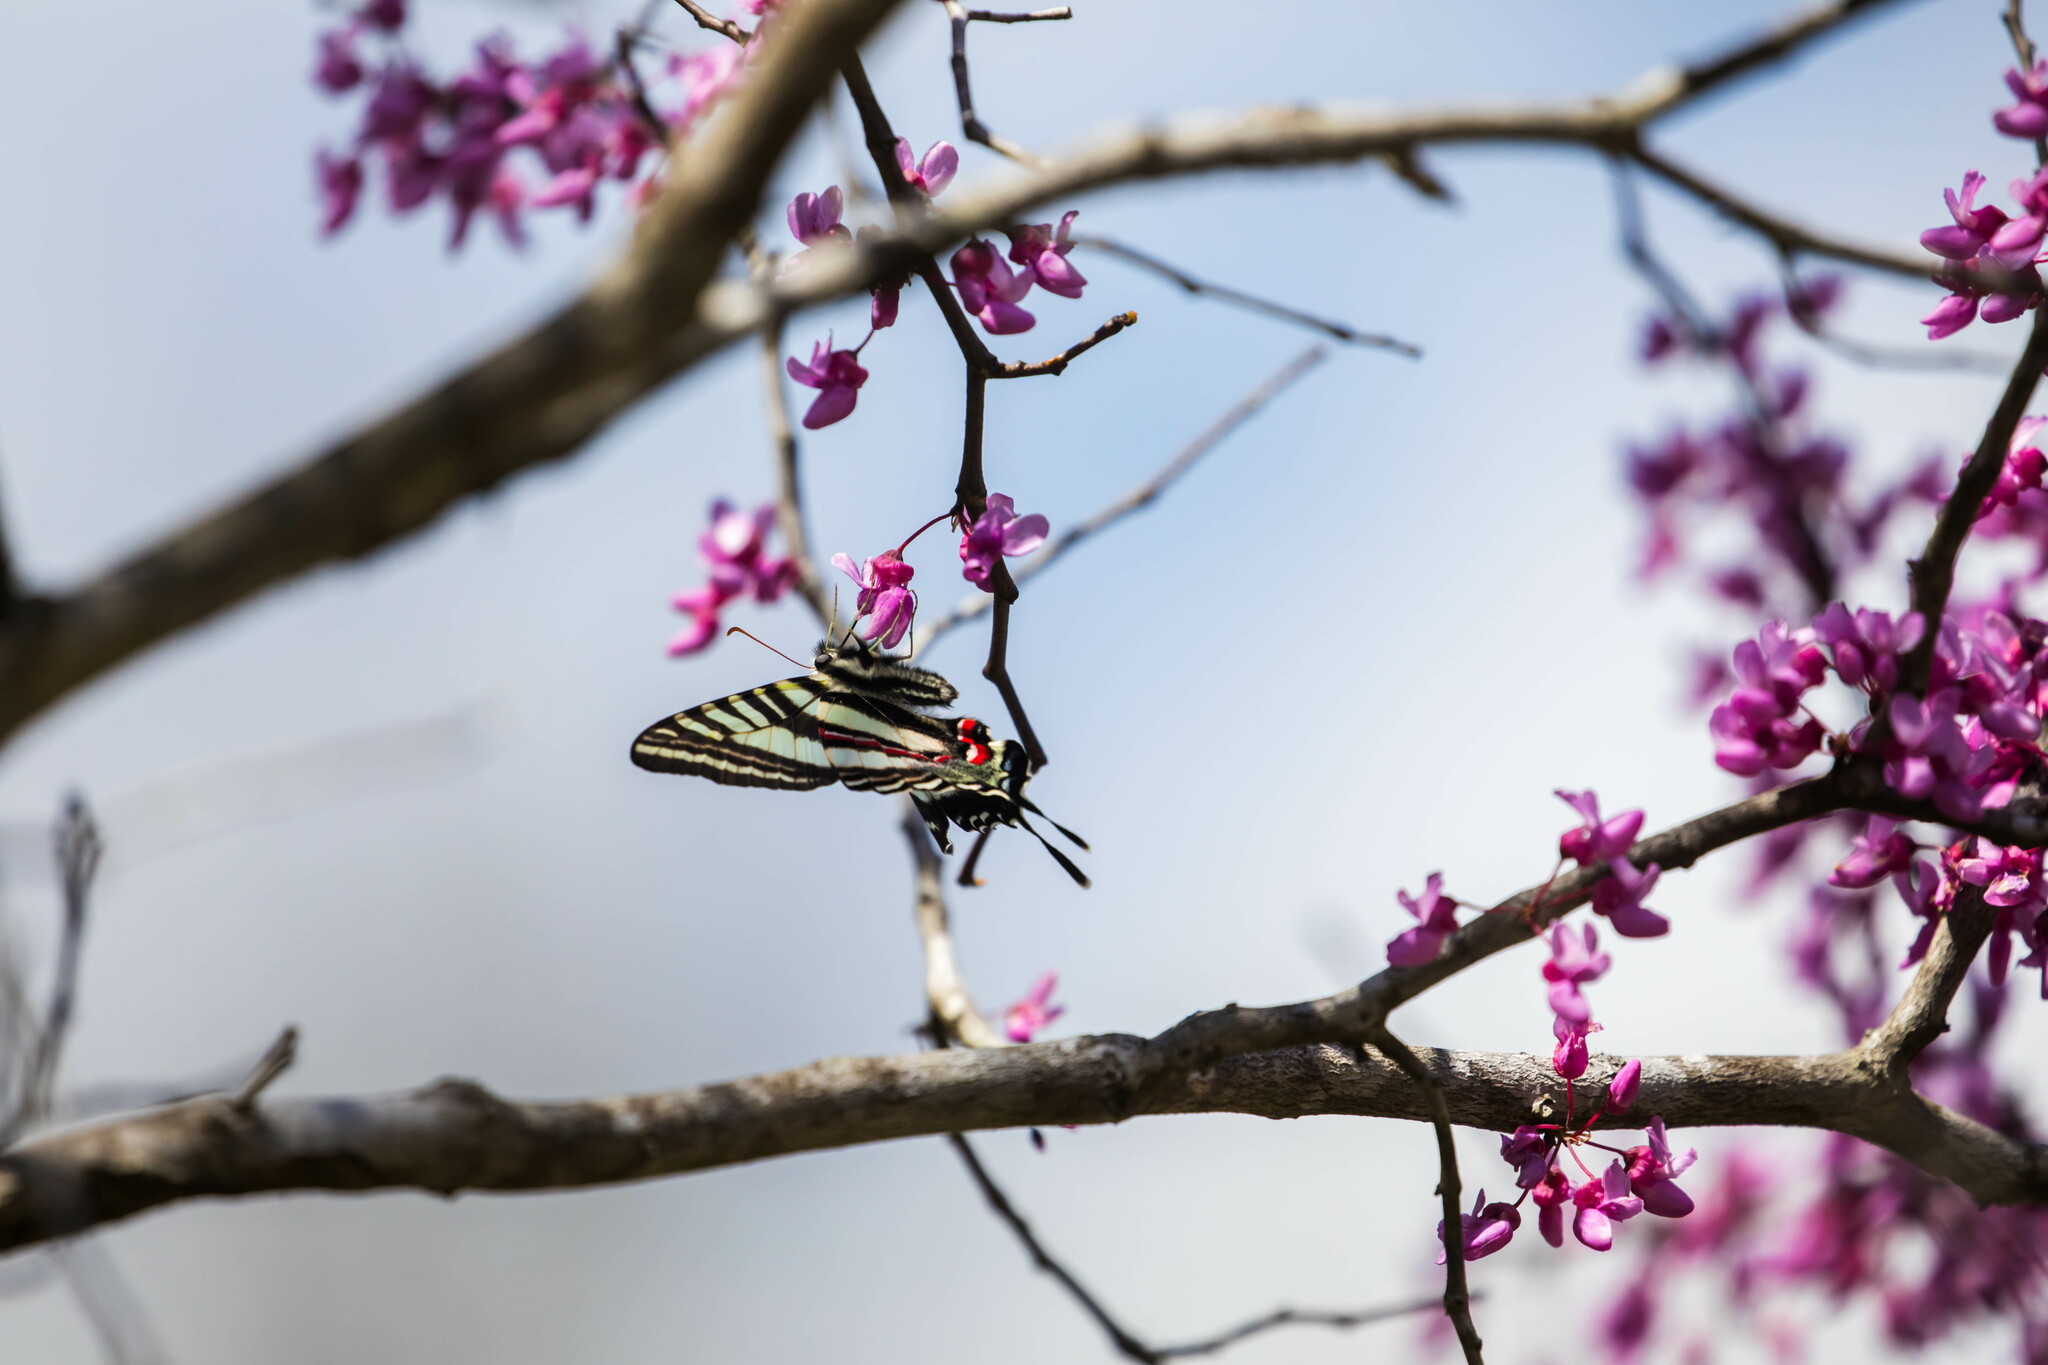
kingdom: Animalia
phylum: Arthropoda
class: Insecta
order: Lepidoptera
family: Papilionidae
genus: Protographium
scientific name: Protographium marcellus
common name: Zebra swallowtail
